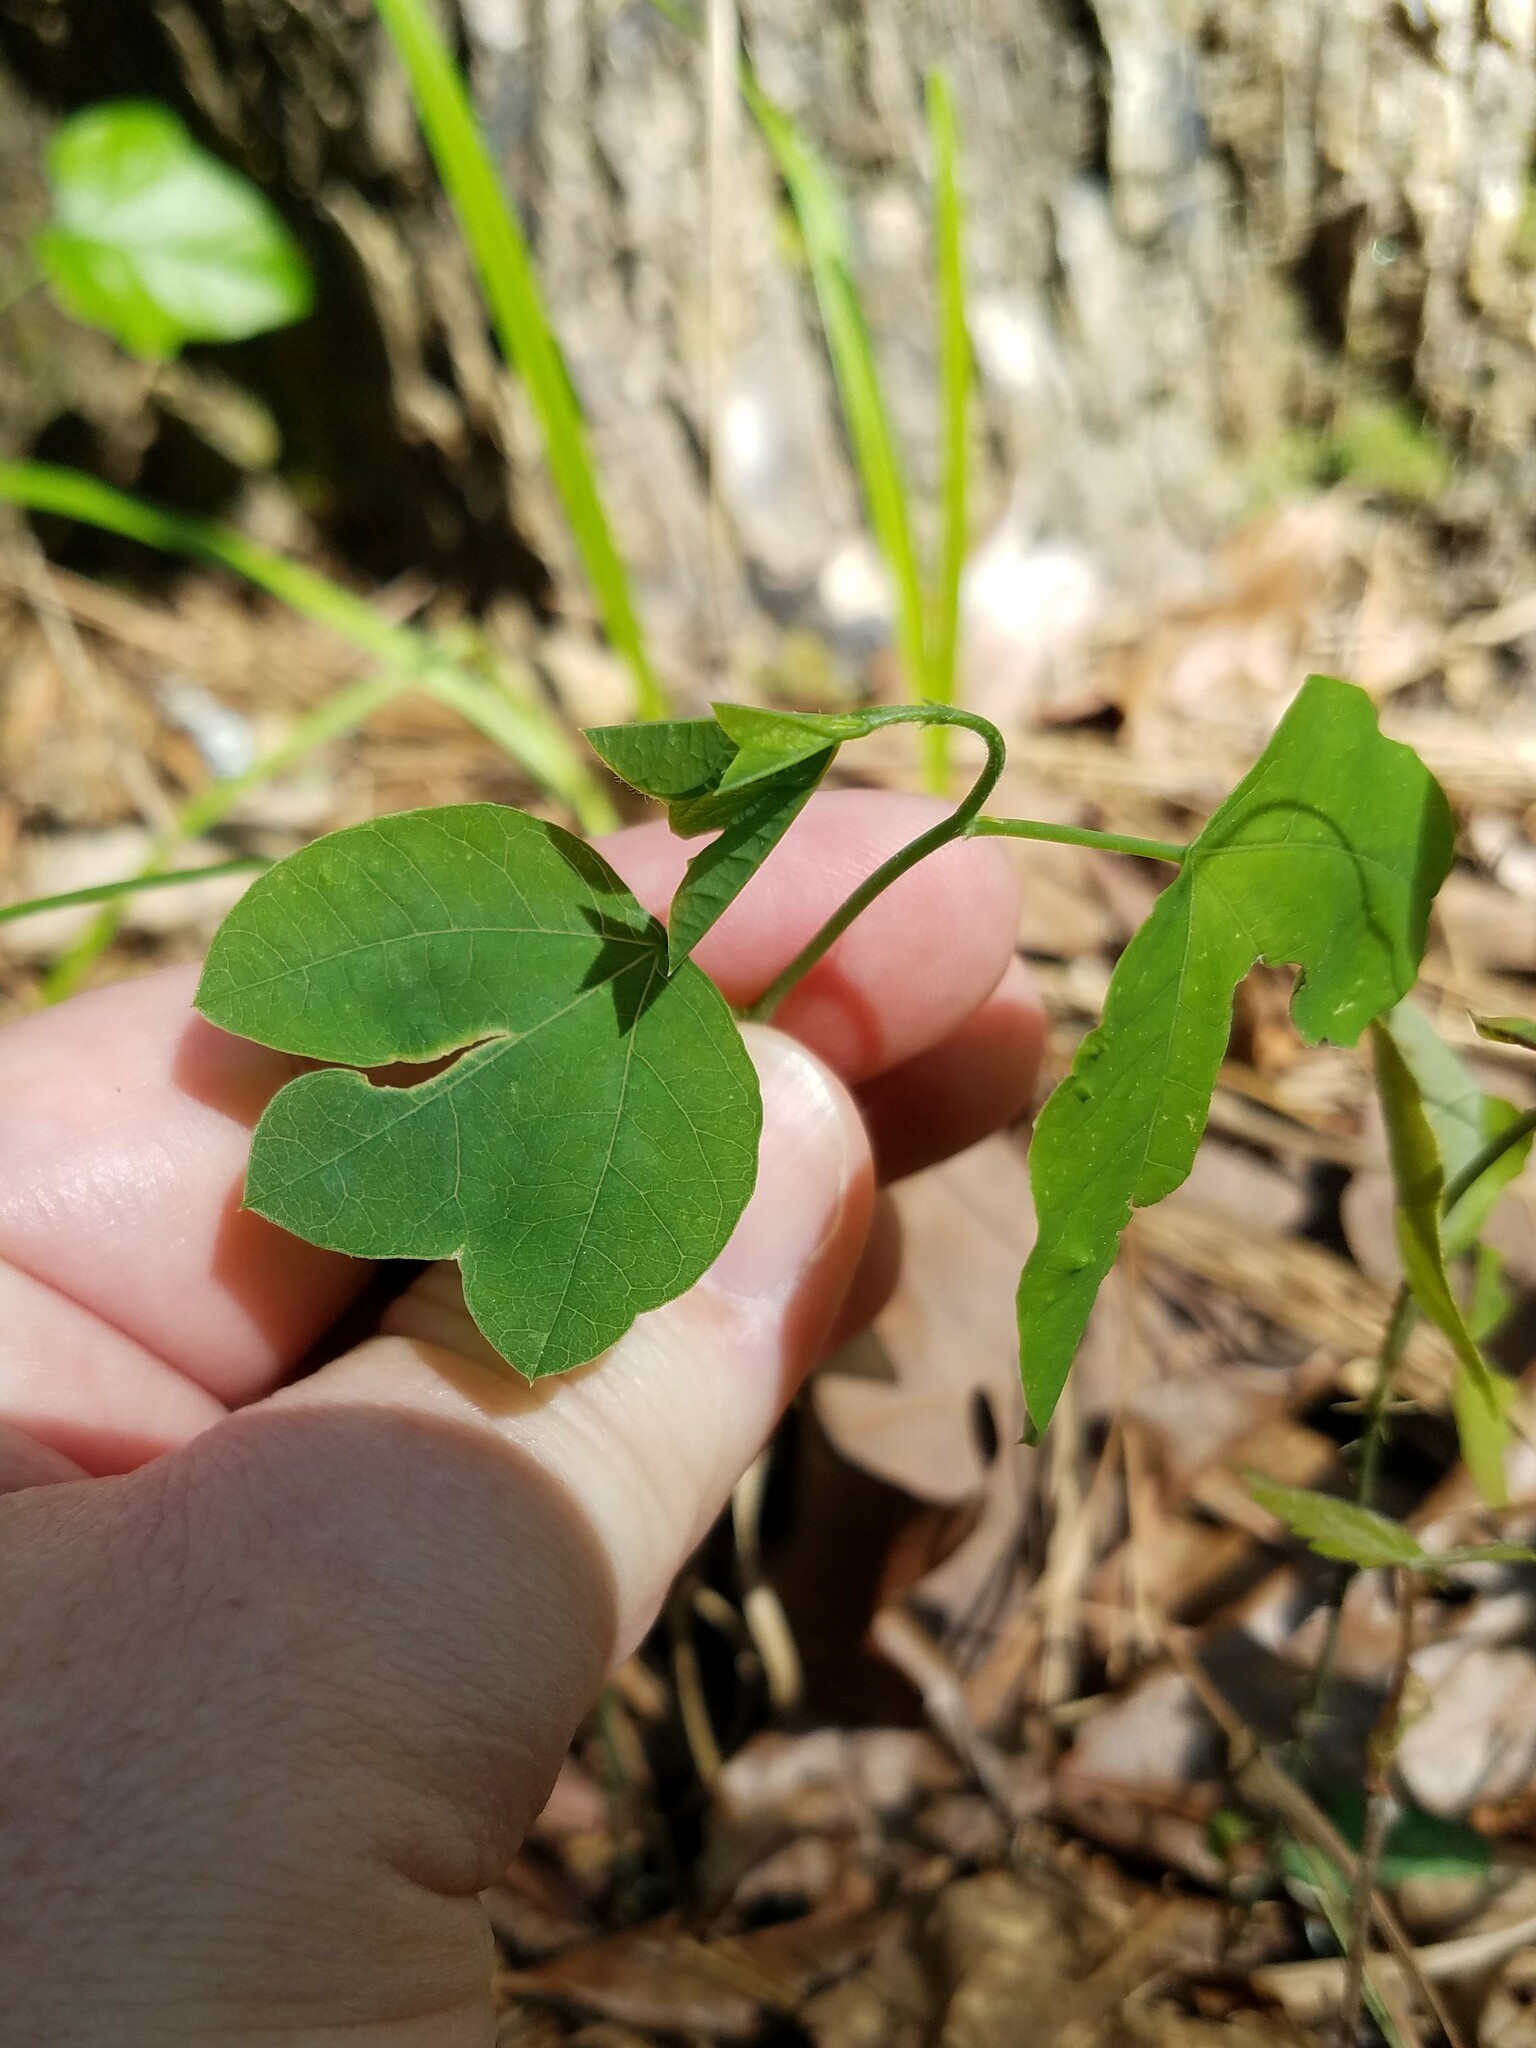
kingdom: Plantae
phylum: Tracheophyta
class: Magnoliopsida
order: Malpighiales
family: Passifloraceae
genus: Passiflora
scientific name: Passiflora lutea
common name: Yellow passionflower
